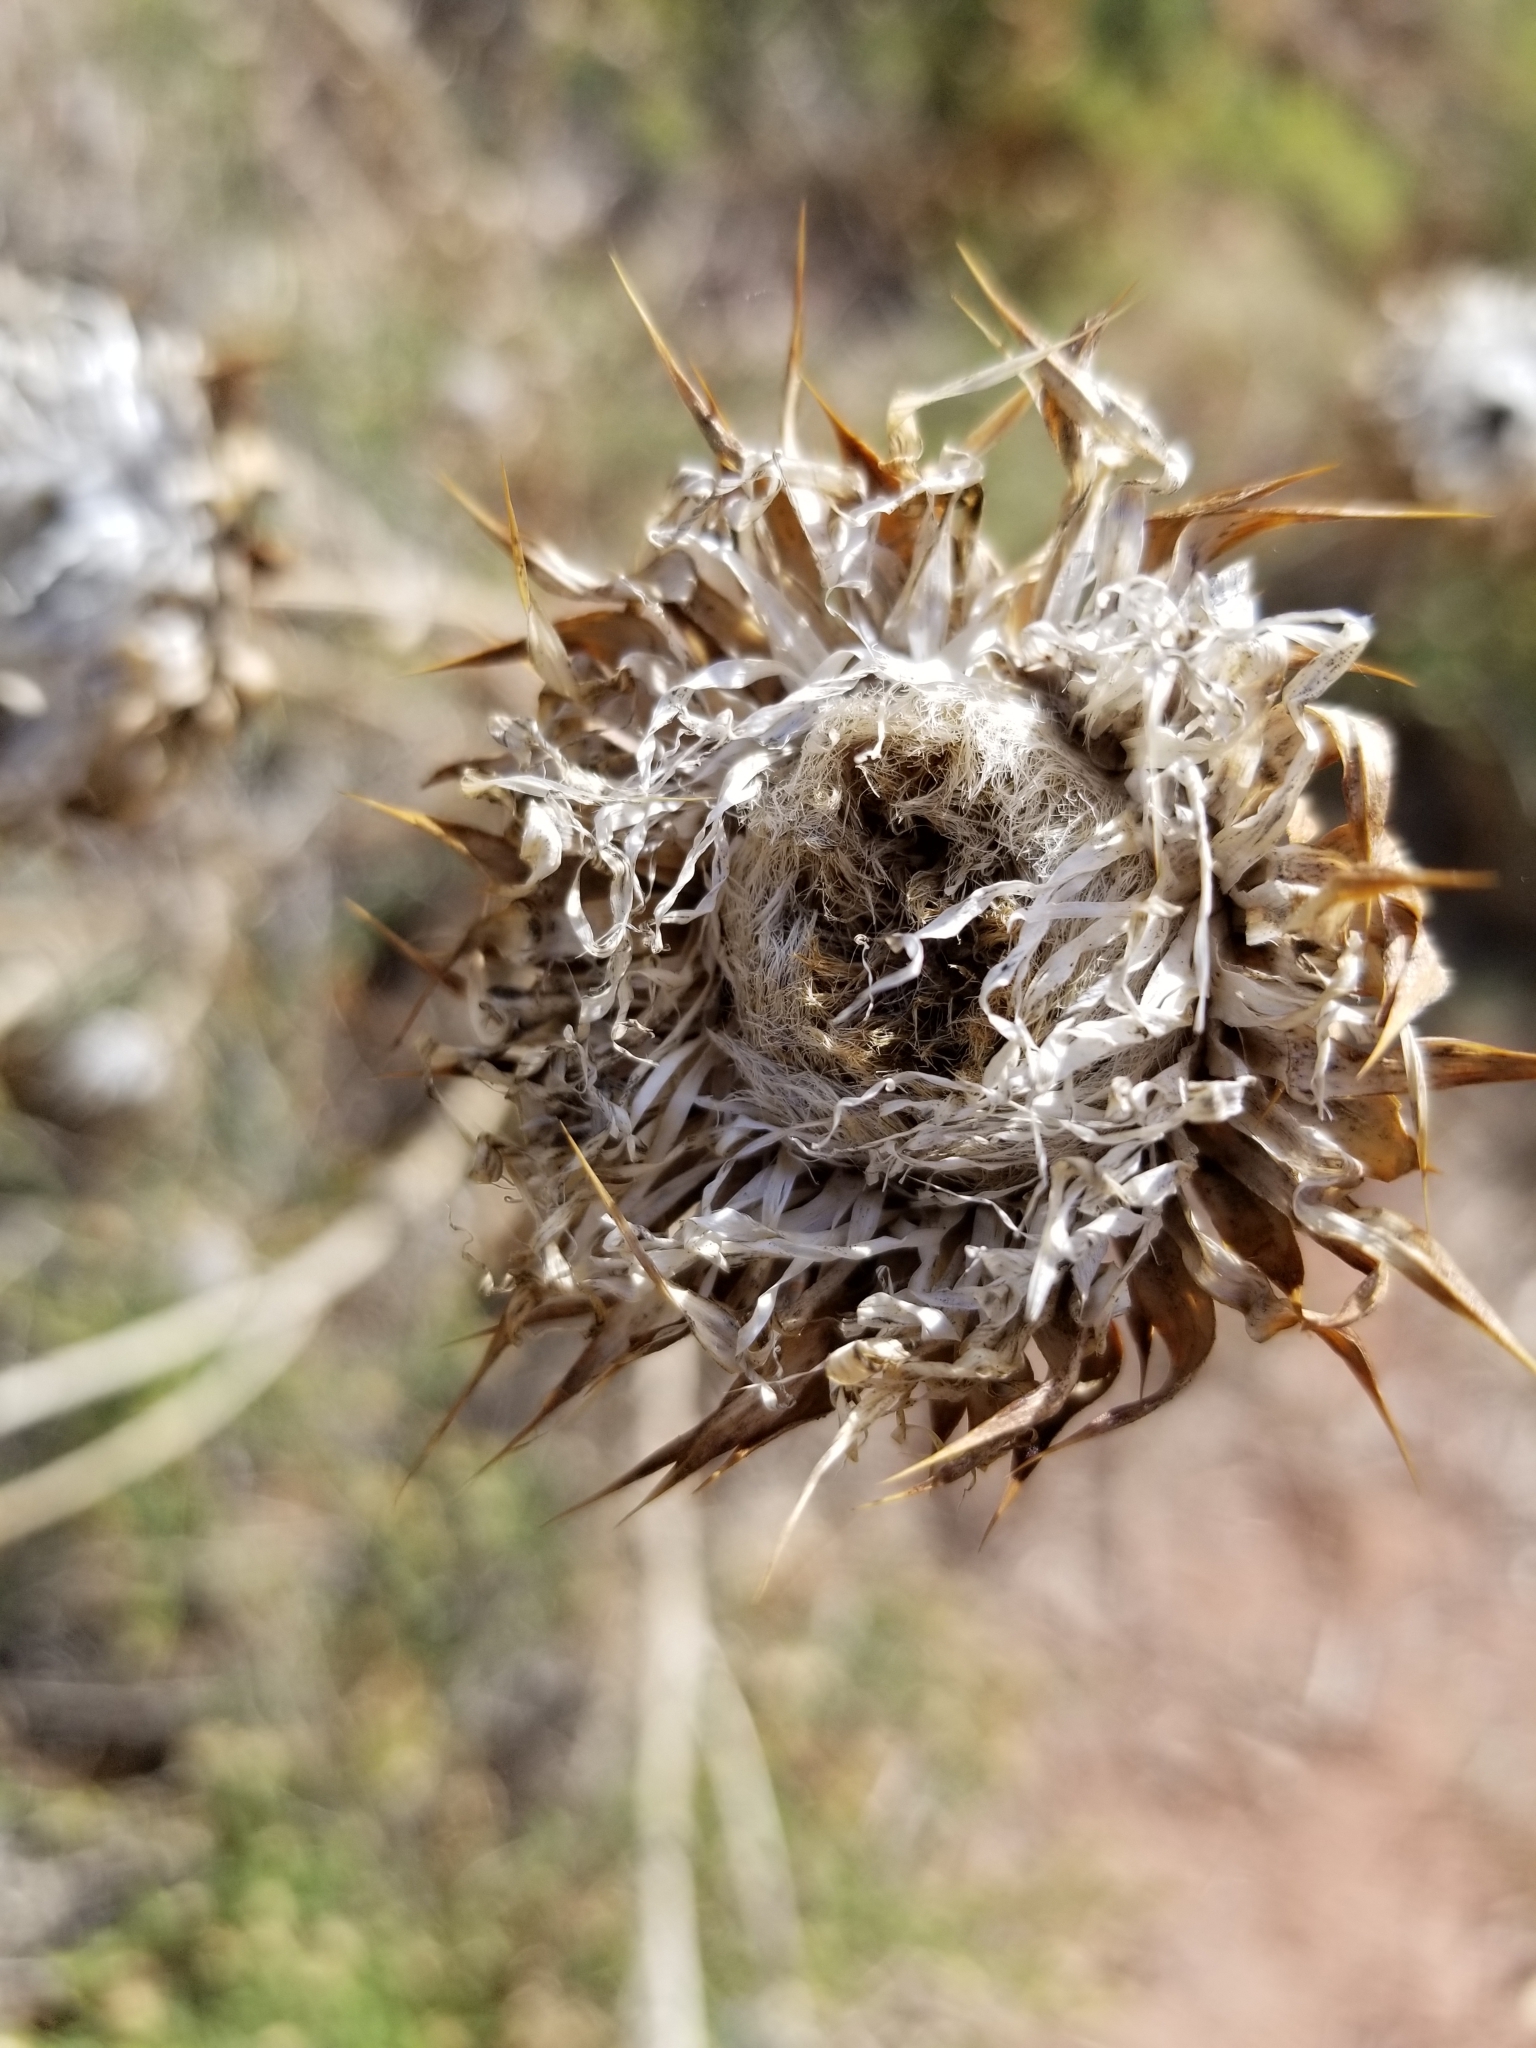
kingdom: Plantae
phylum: Tracheophyta
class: Magnoliopsida
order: Asterales
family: Asteraceae
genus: Carduus
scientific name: Carduus nutans
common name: Musk thistle
